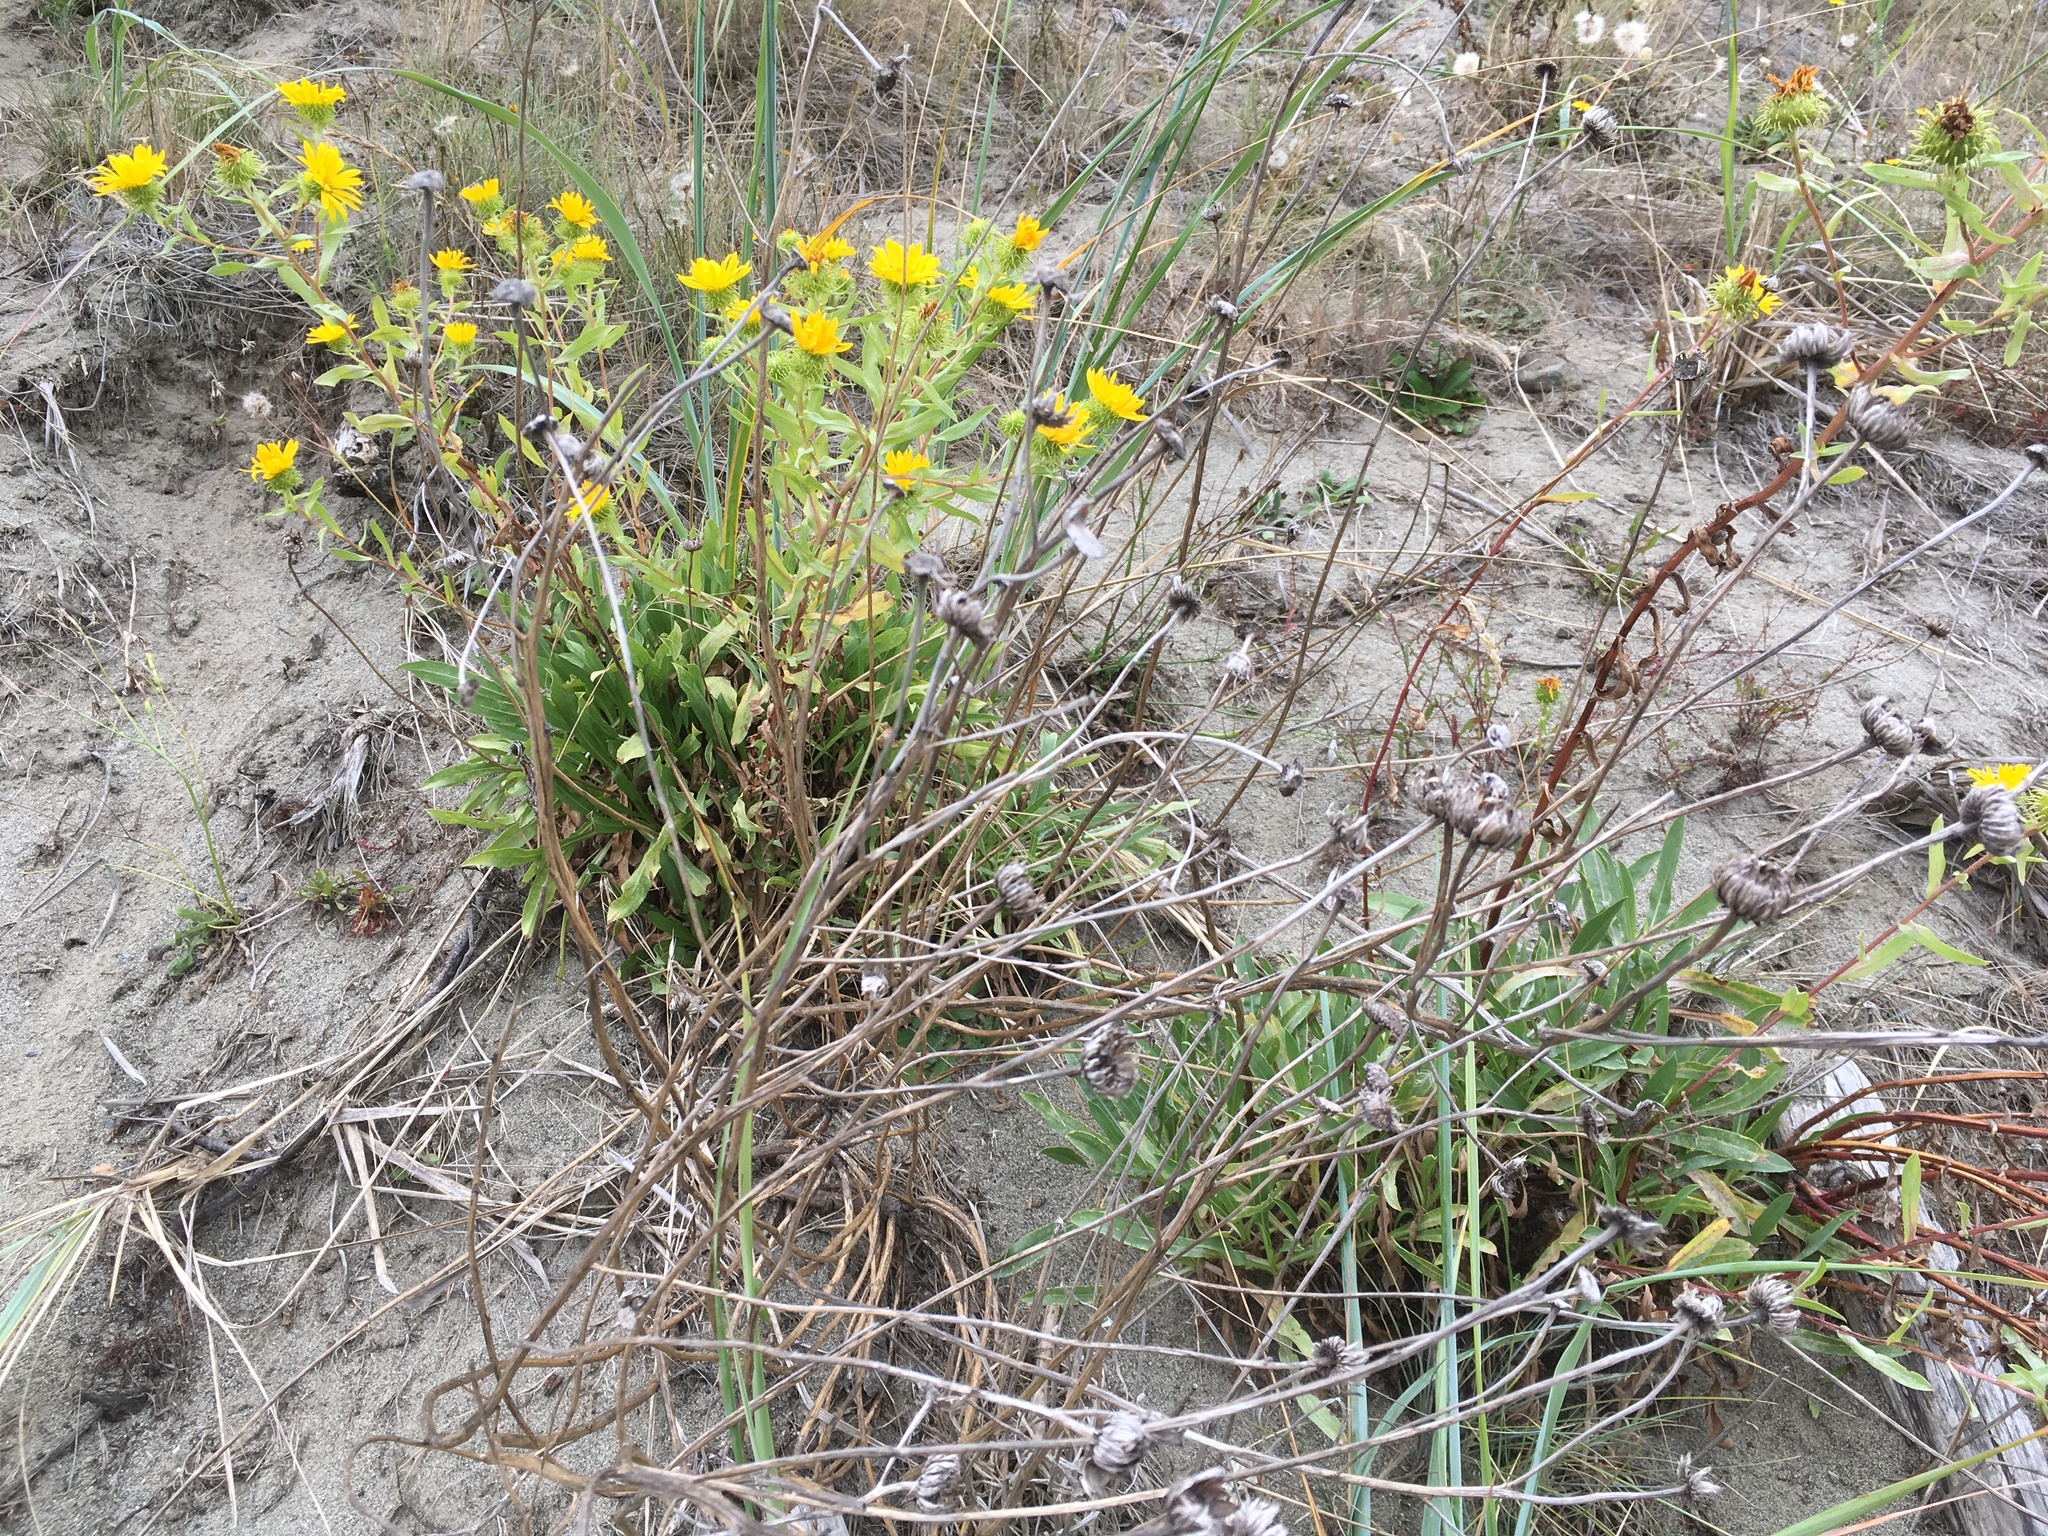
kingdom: Plantae
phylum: Tracheophyta
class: Magnoliopsida
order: Asterales
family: Asteraceae
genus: Grindelia
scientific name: Grindelia hirsutula
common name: Hairy gumweed
